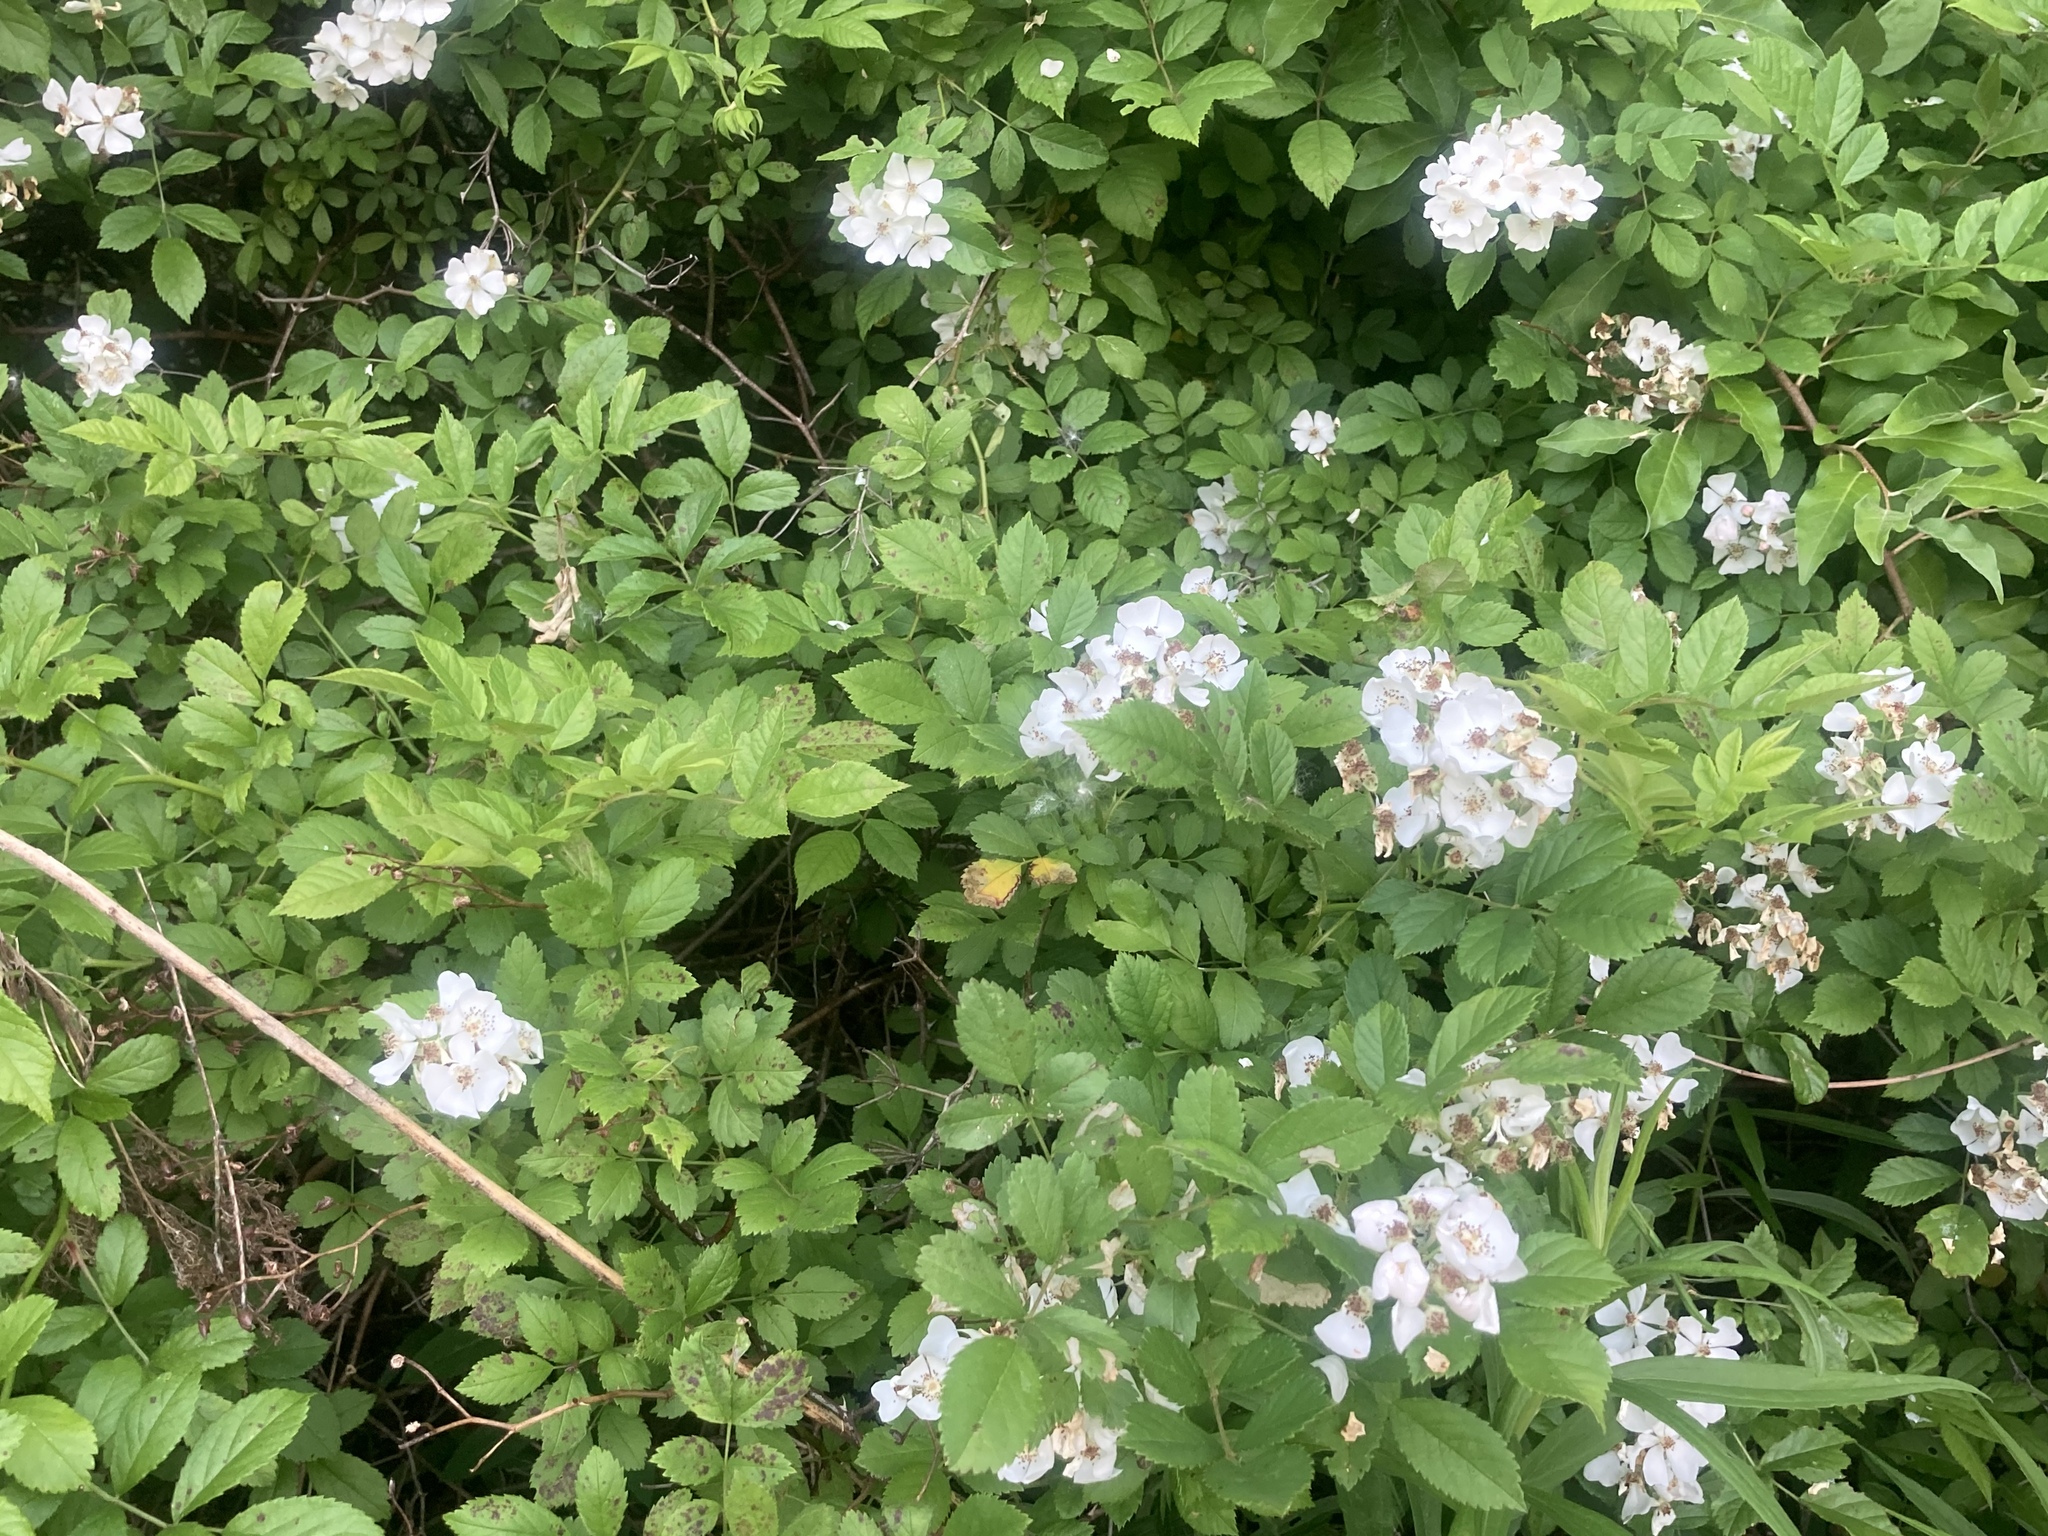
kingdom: Plantae
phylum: Tracheophyta
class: Magnoliopsida
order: Rosales
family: Rosaceae
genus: Rosa
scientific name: Rosa multiflora
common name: Multiflora rose
